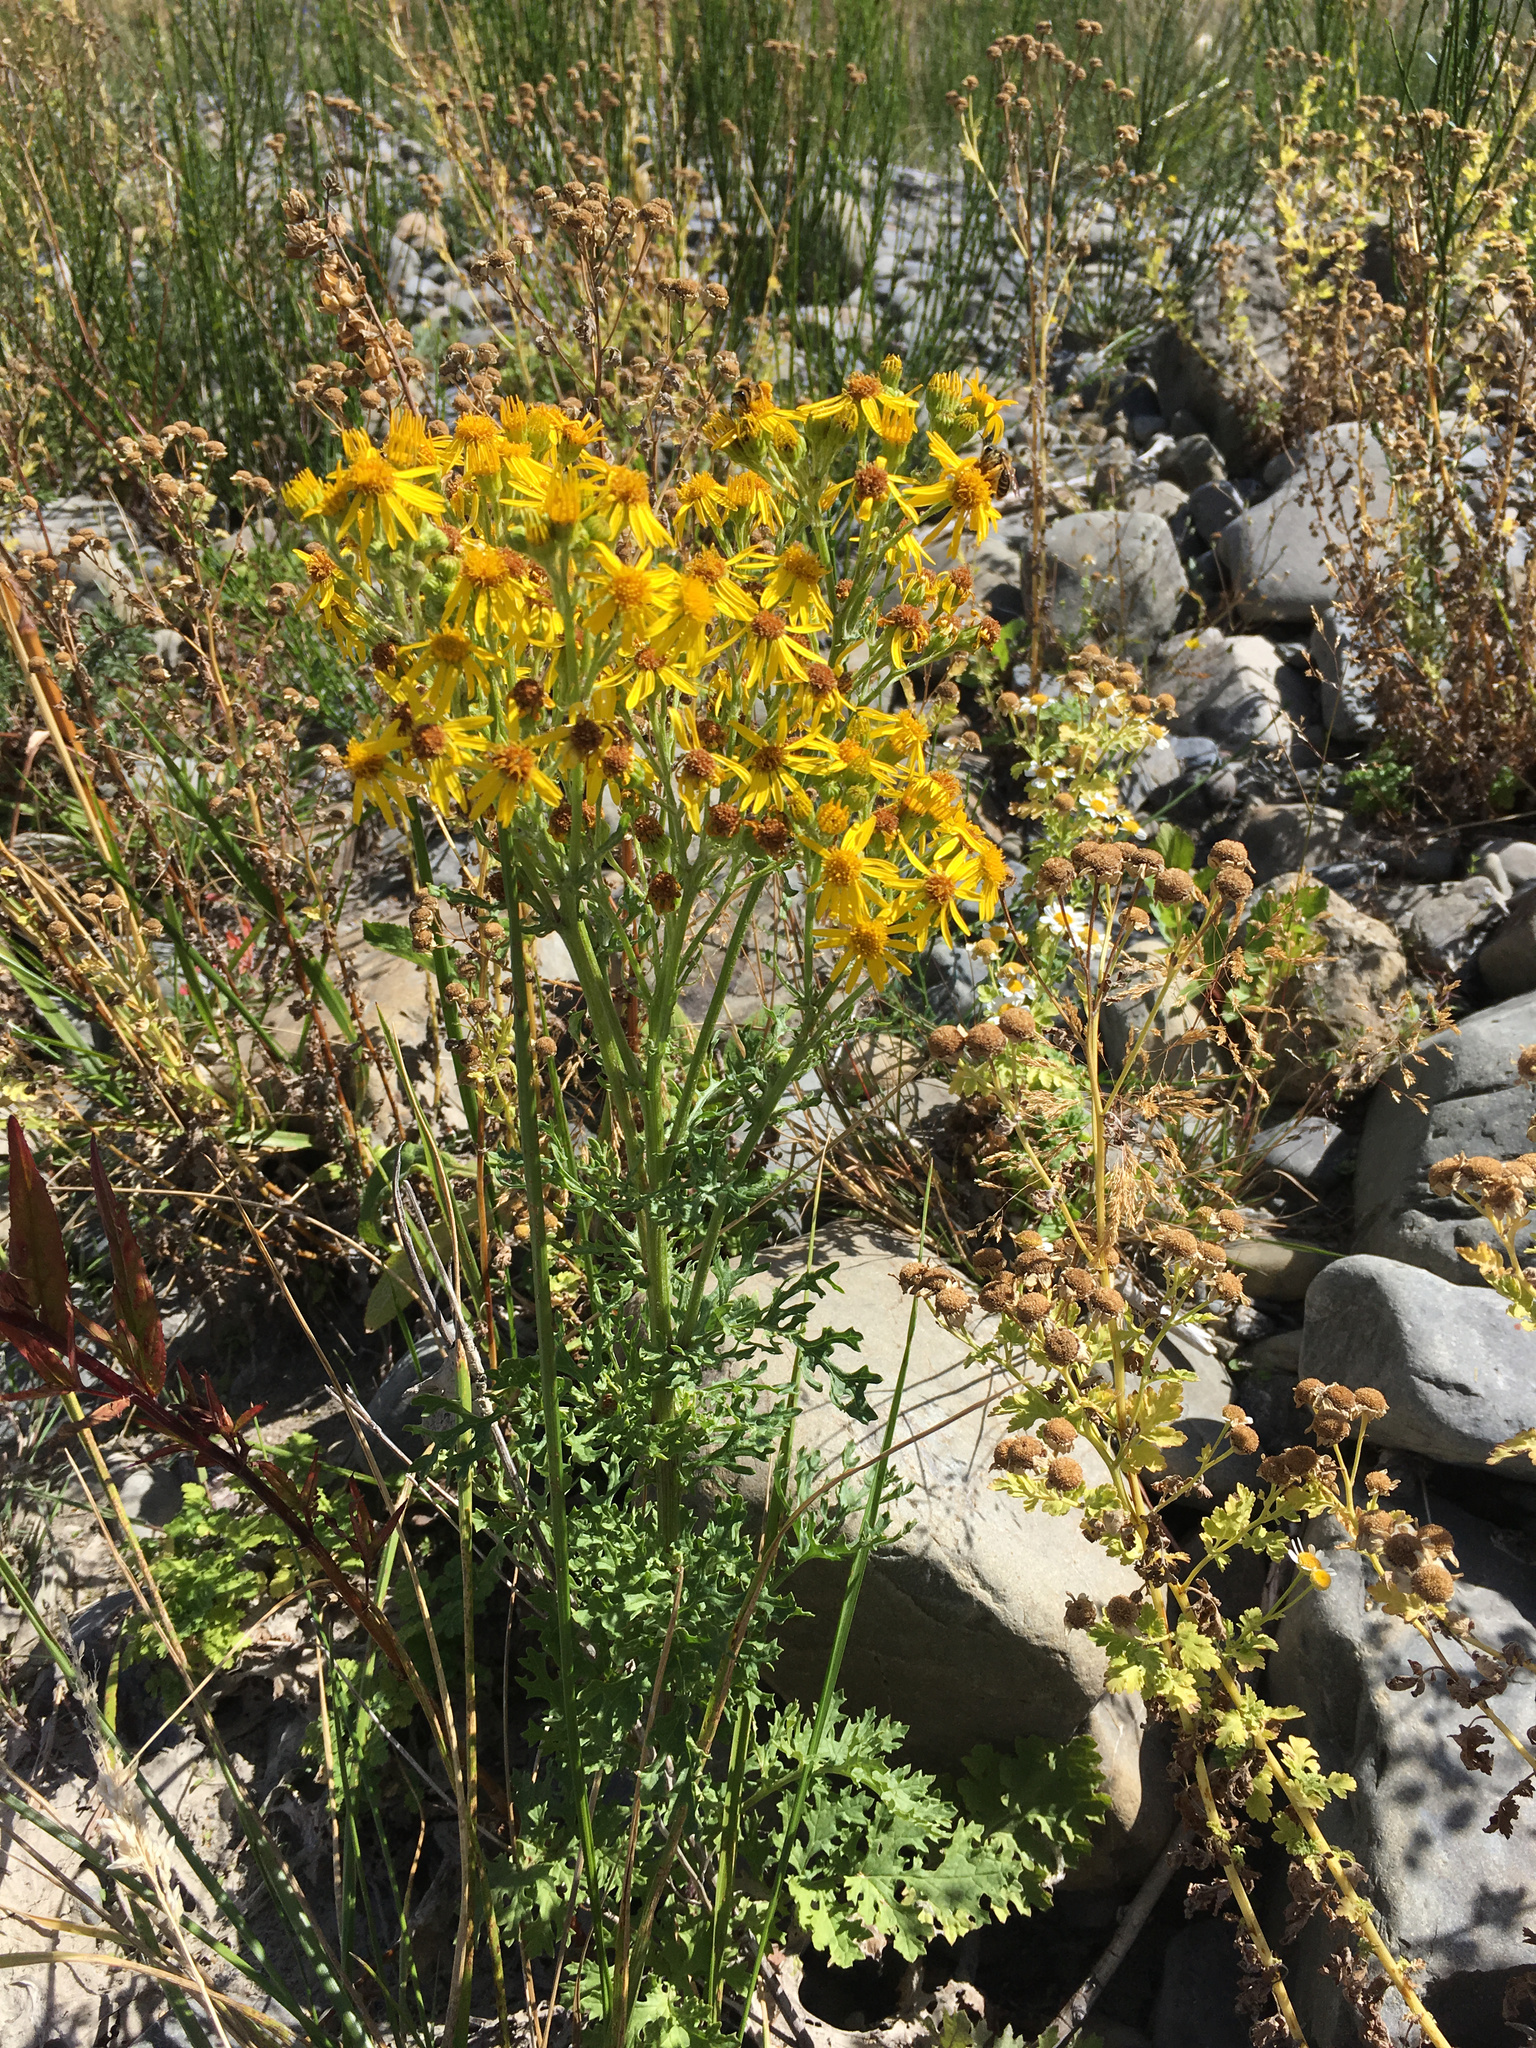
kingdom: Plantae
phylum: Tracheophyta
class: Magnoliopsida
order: Asterales
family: Asteraceae
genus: Jacobaea
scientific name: Jacobaea vulgaris
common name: Stinking willie
